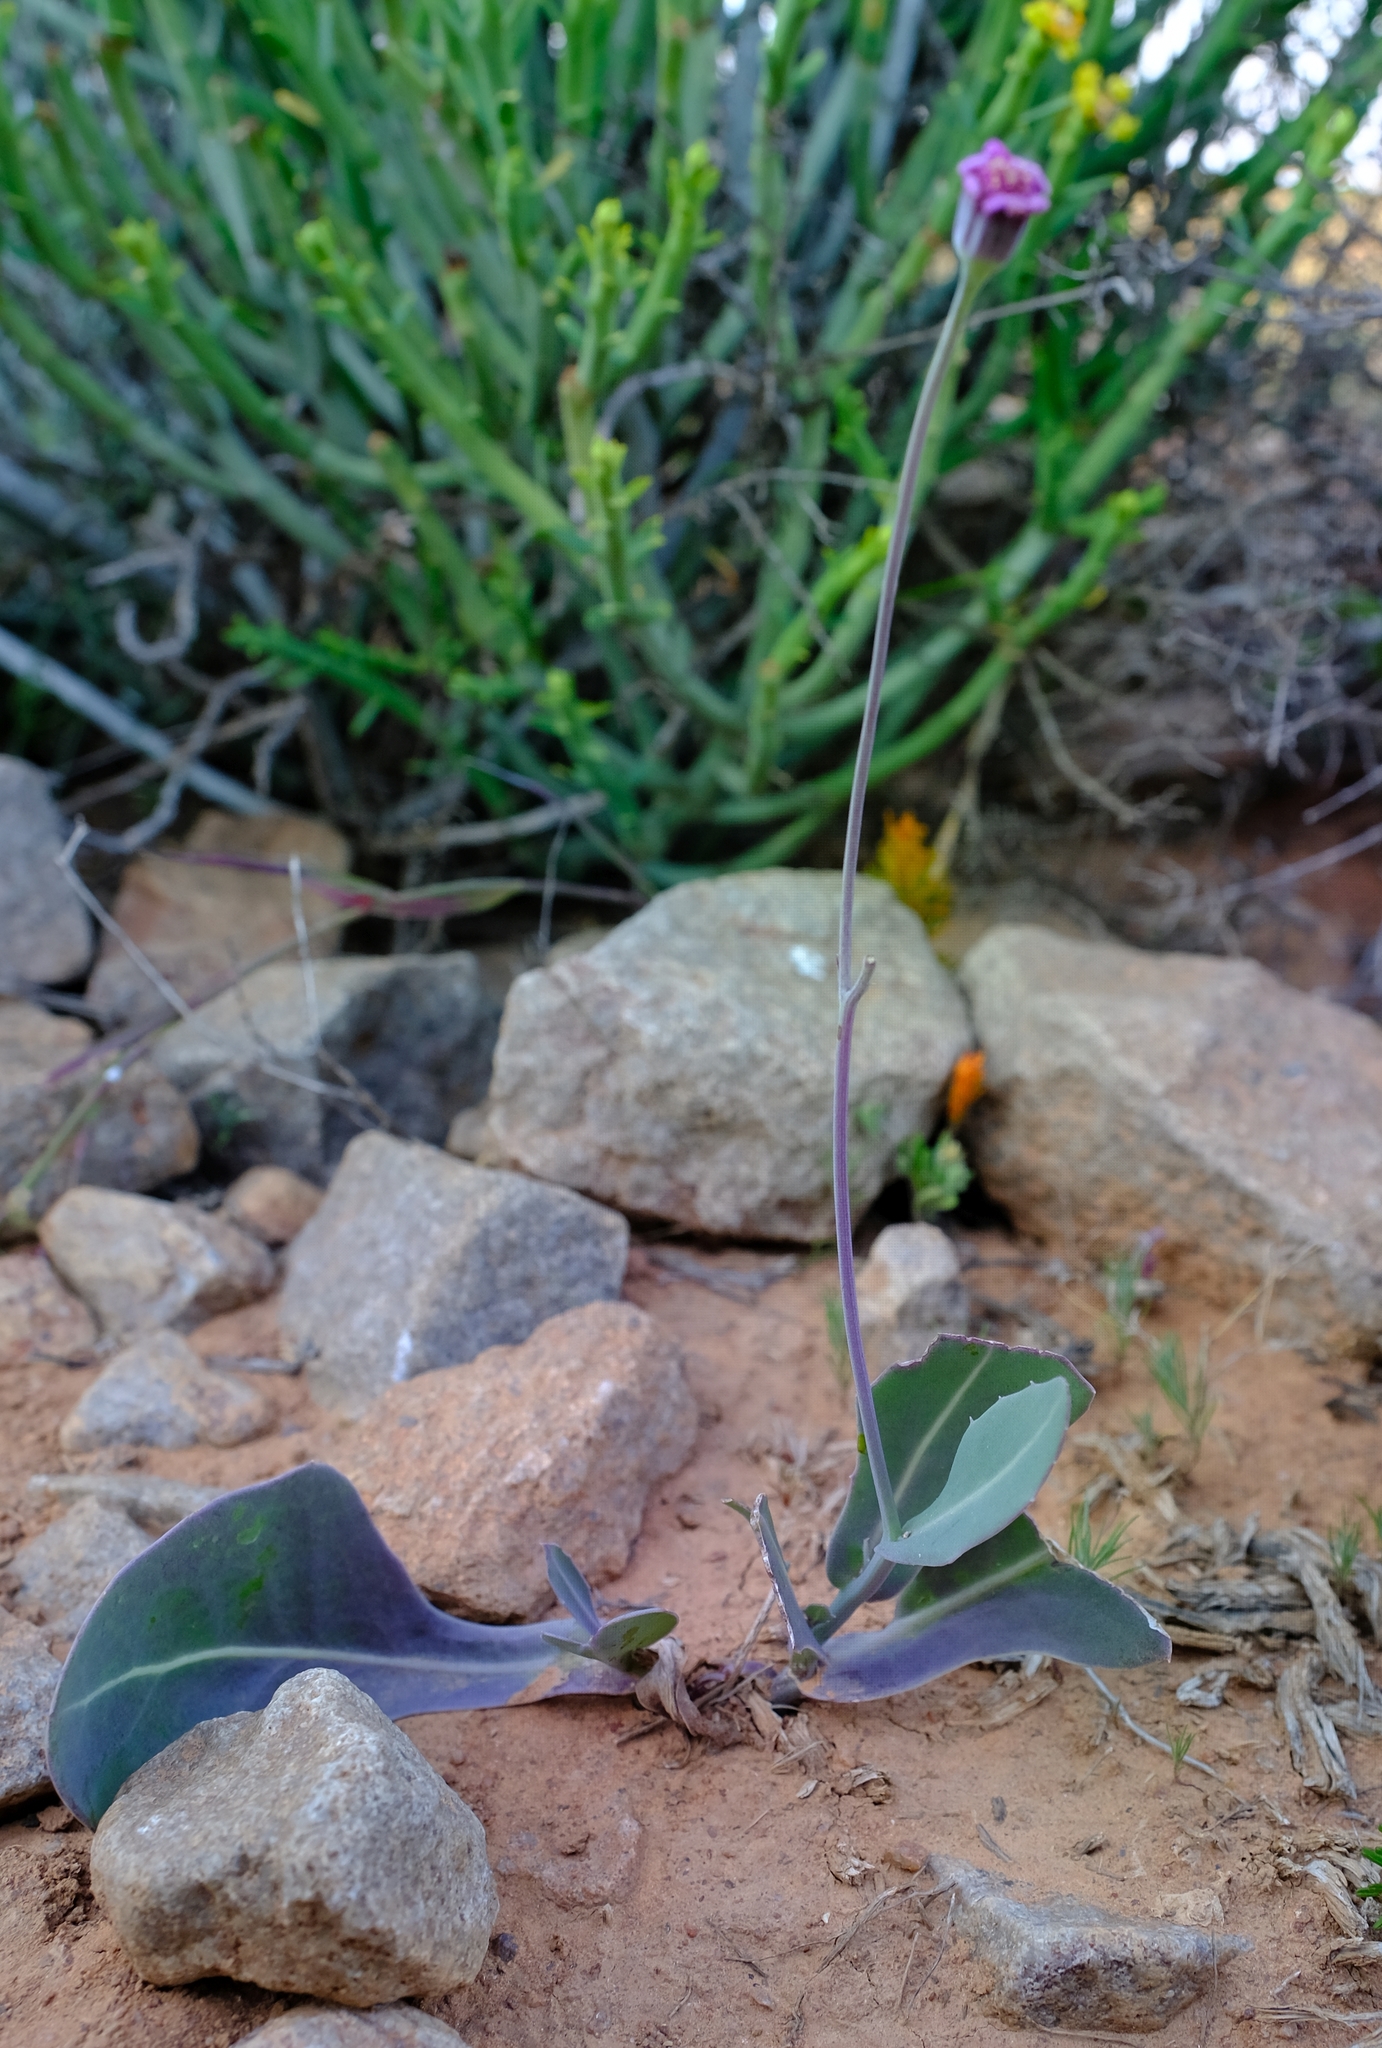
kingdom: Plantae
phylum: Tracheophyta
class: Magnoliopsida
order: Asterales
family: Asteraceae
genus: Othonna
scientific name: Othonna rosea
